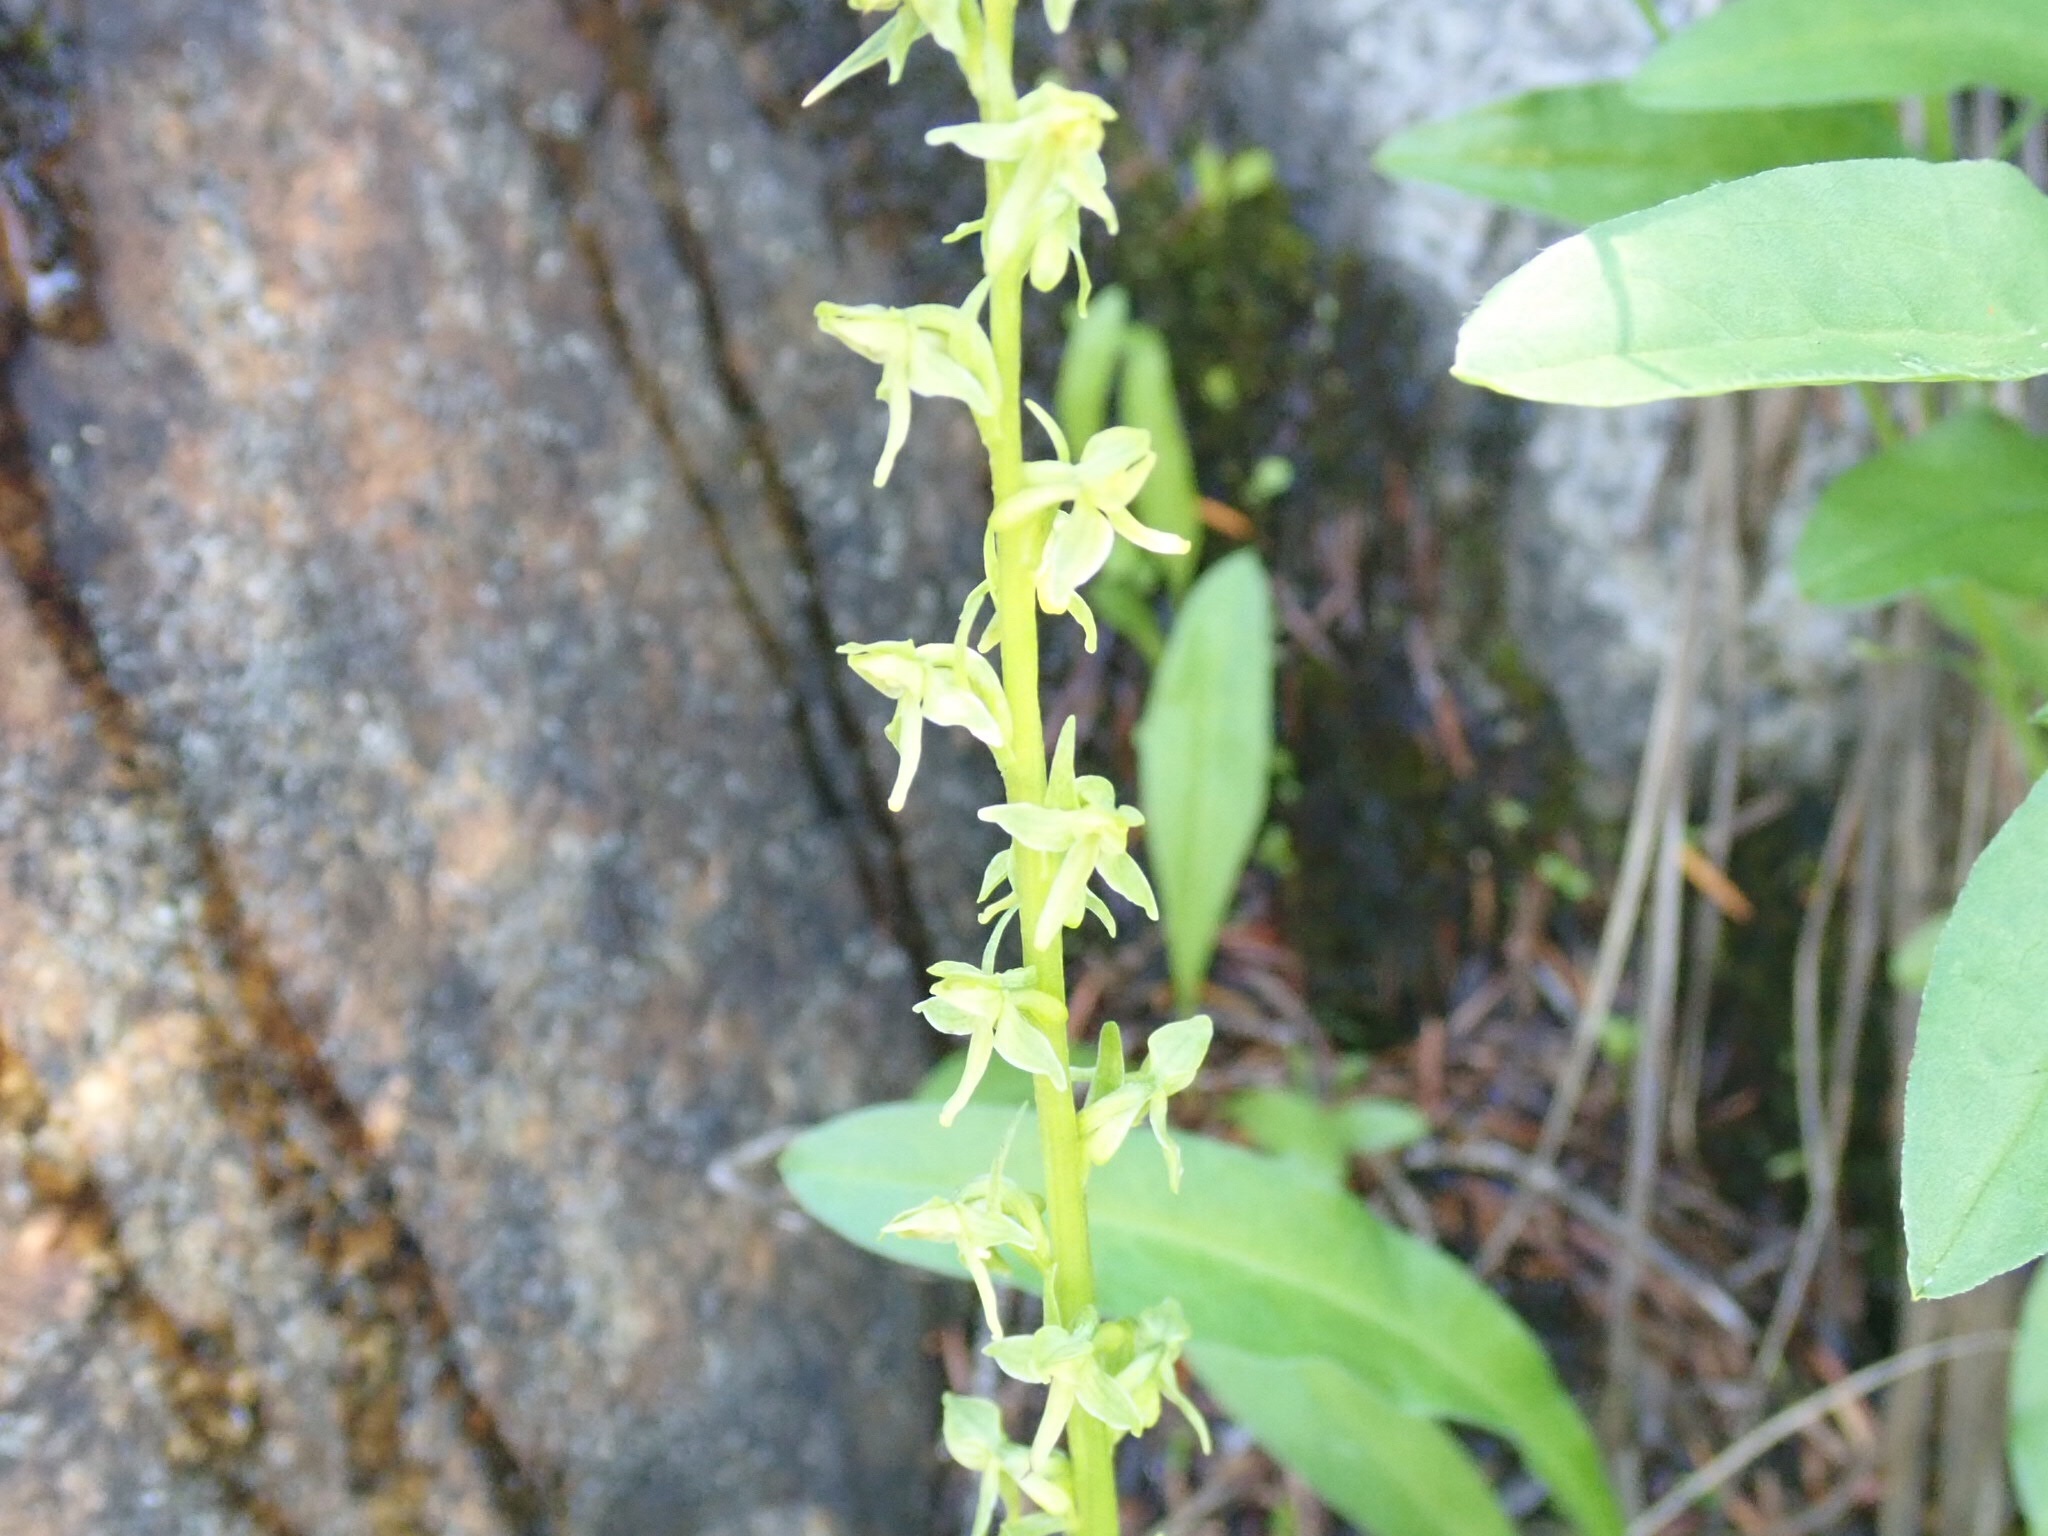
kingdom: Plantae
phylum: Tracheophyta
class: Liliopsida
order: Asparagales
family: Orchidaceae
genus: Platanthera
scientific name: Platanthera stricta
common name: Slender bog orchid
